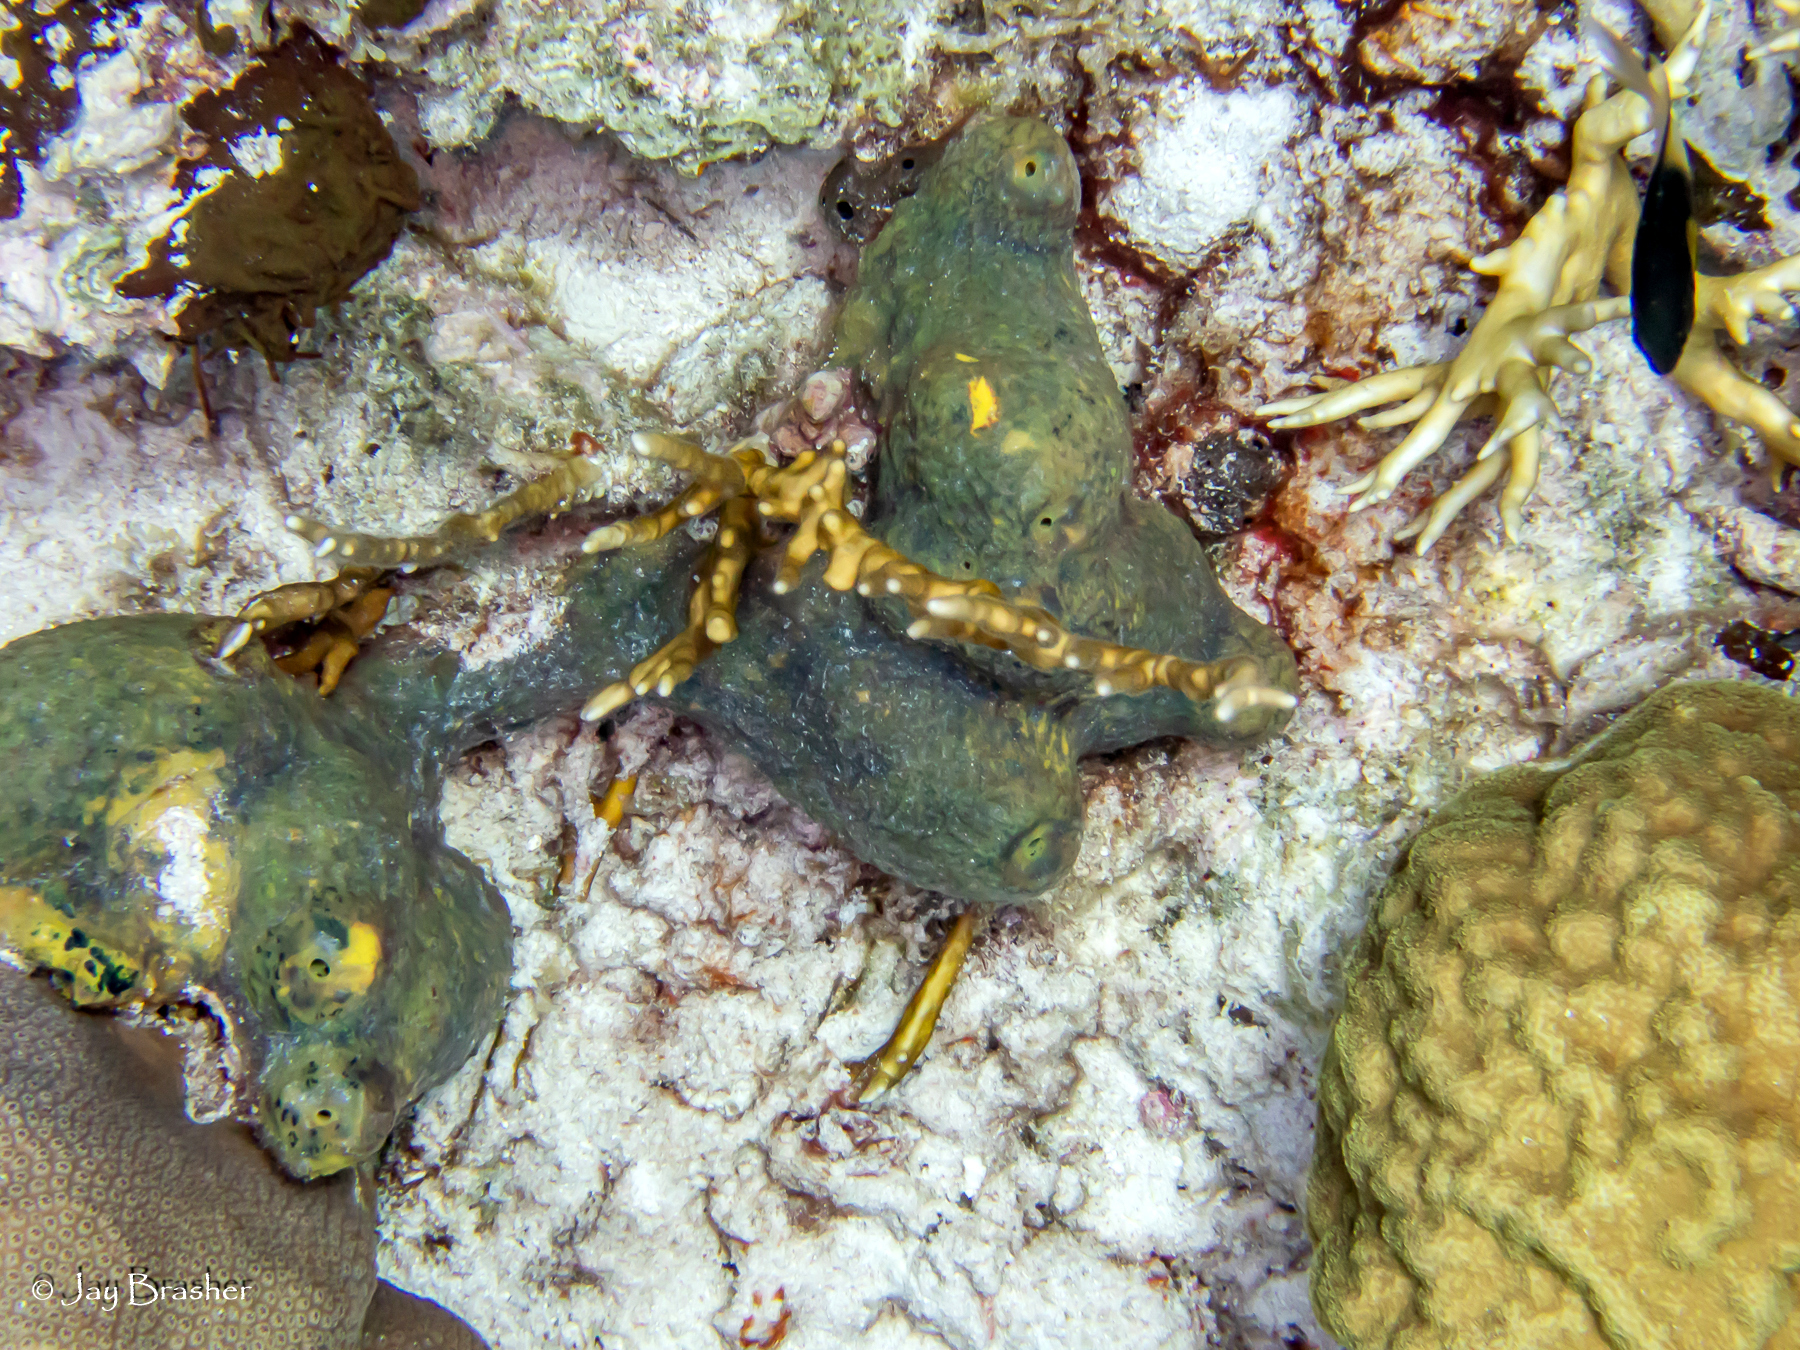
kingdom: Animalia
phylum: Cnidaria
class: Anthozoa
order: Scleractinia
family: Poritidae
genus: Porites
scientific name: Porites astreoides
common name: Mustard hill coral
